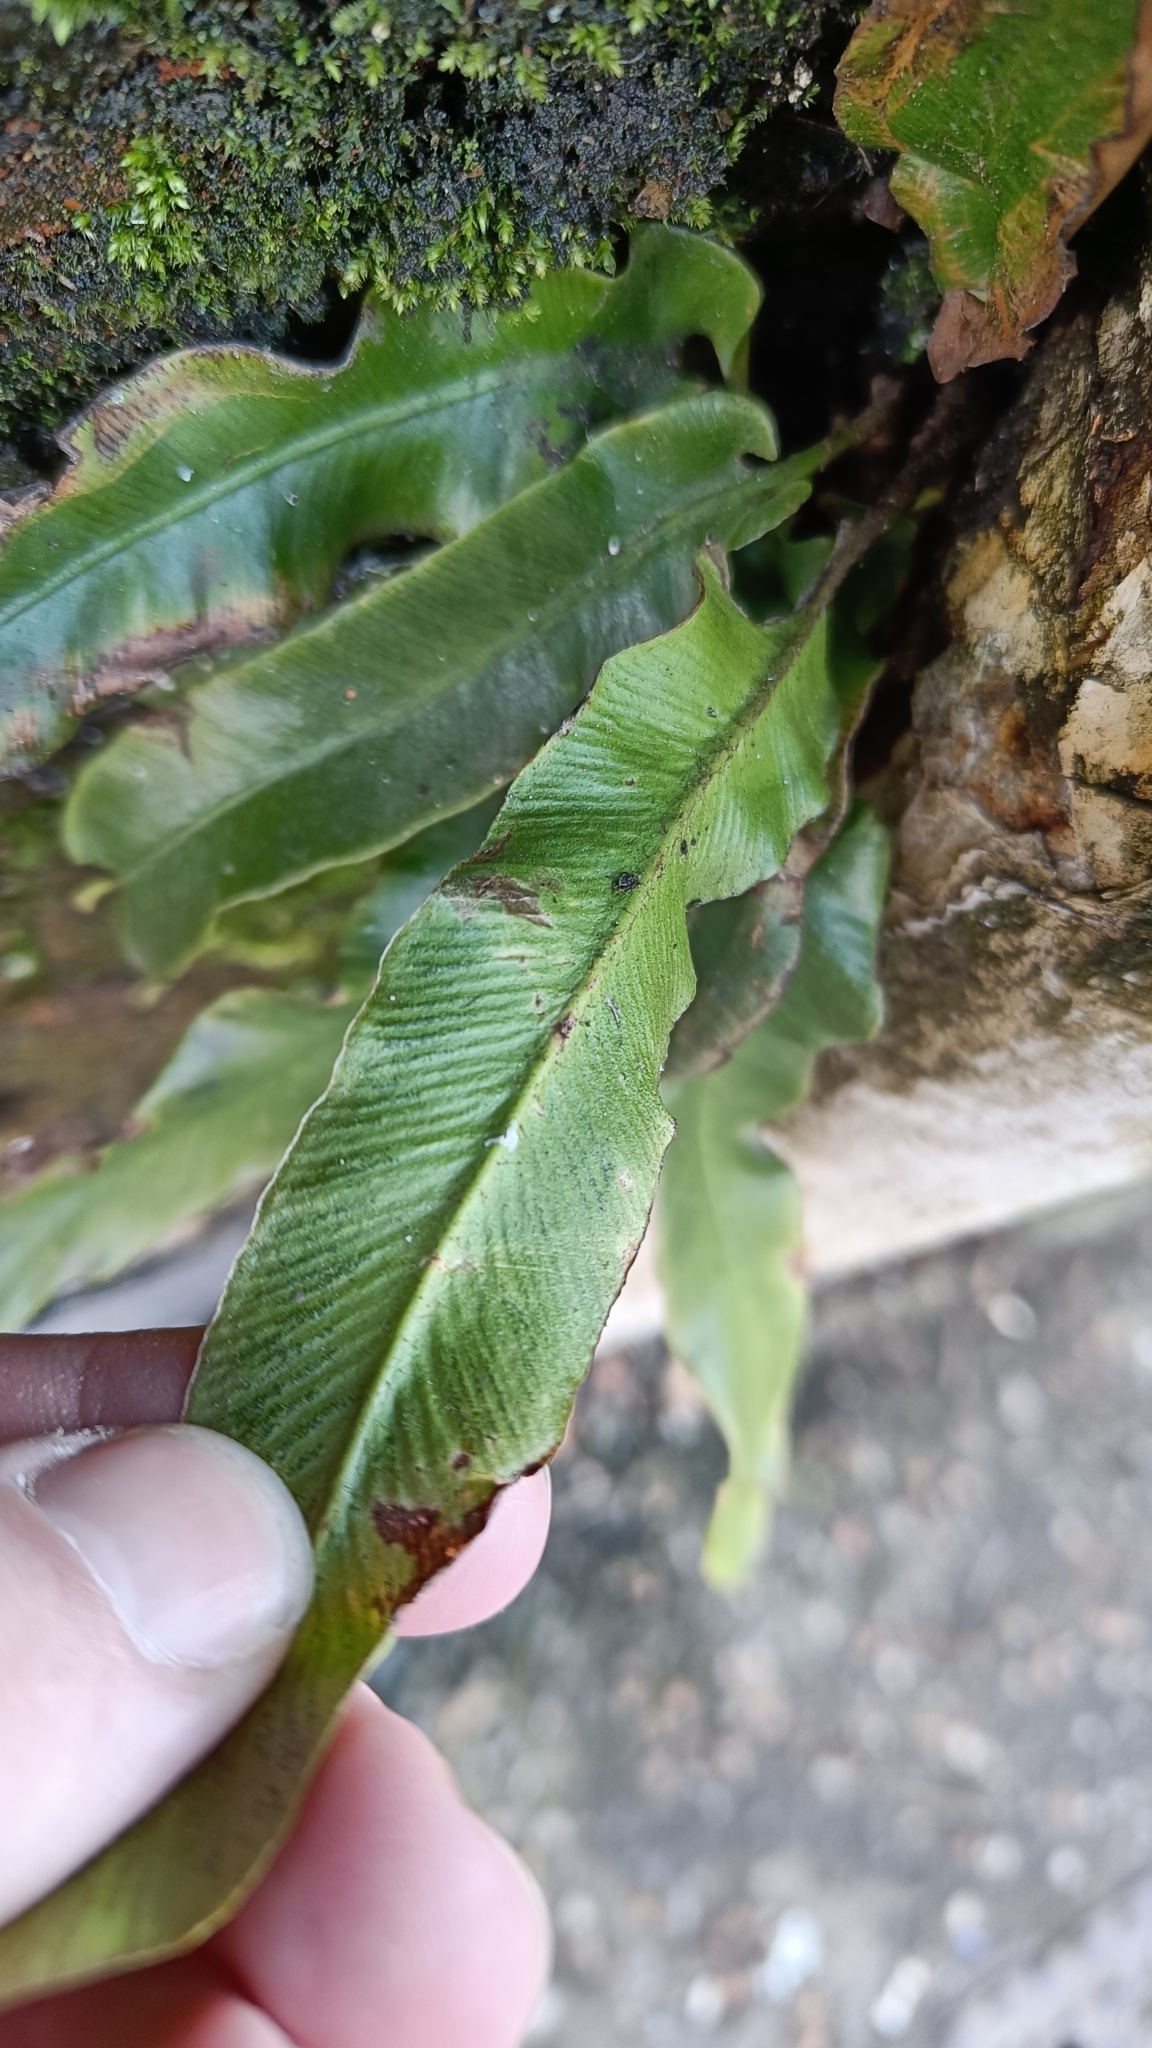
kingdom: Plantae
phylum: Tracheophyta
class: Polypodiopsida
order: Polypodiales
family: Aspleniaceae
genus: Asplenium
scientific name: Asplenium scolopendrium
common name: Hart's-tongue fern
